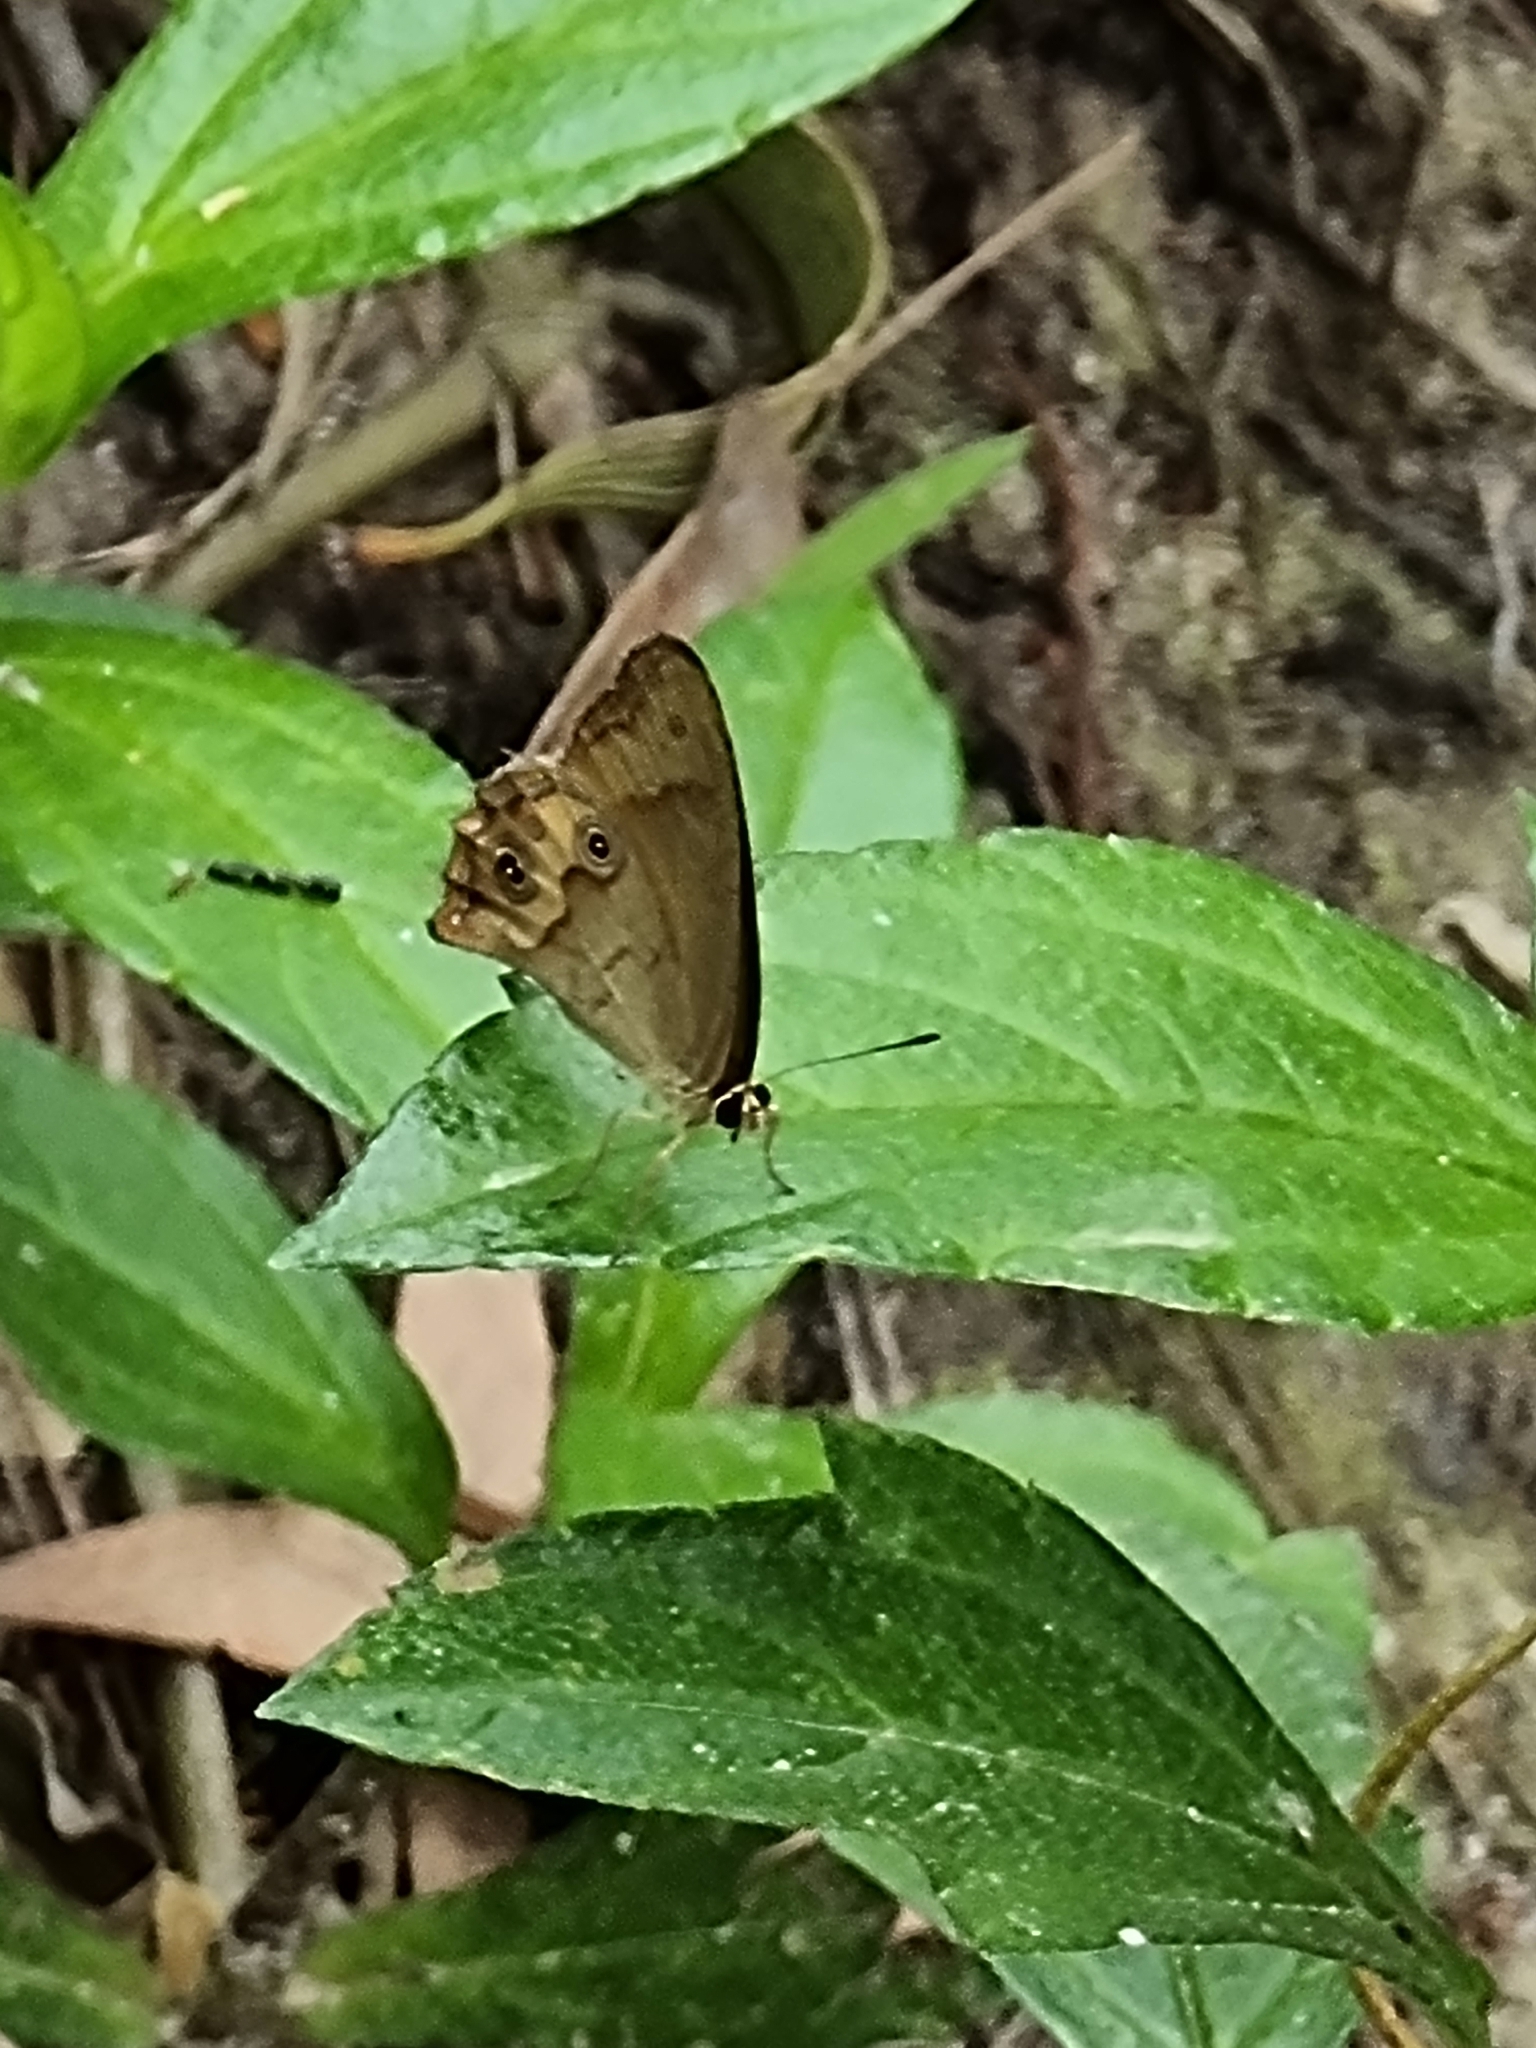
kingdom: Plantae
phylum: Tracheophyta
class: Liliopsida
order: Asparagales
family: Asphodelaceae
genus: Tricoryne
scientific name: Tricoryne anceps
